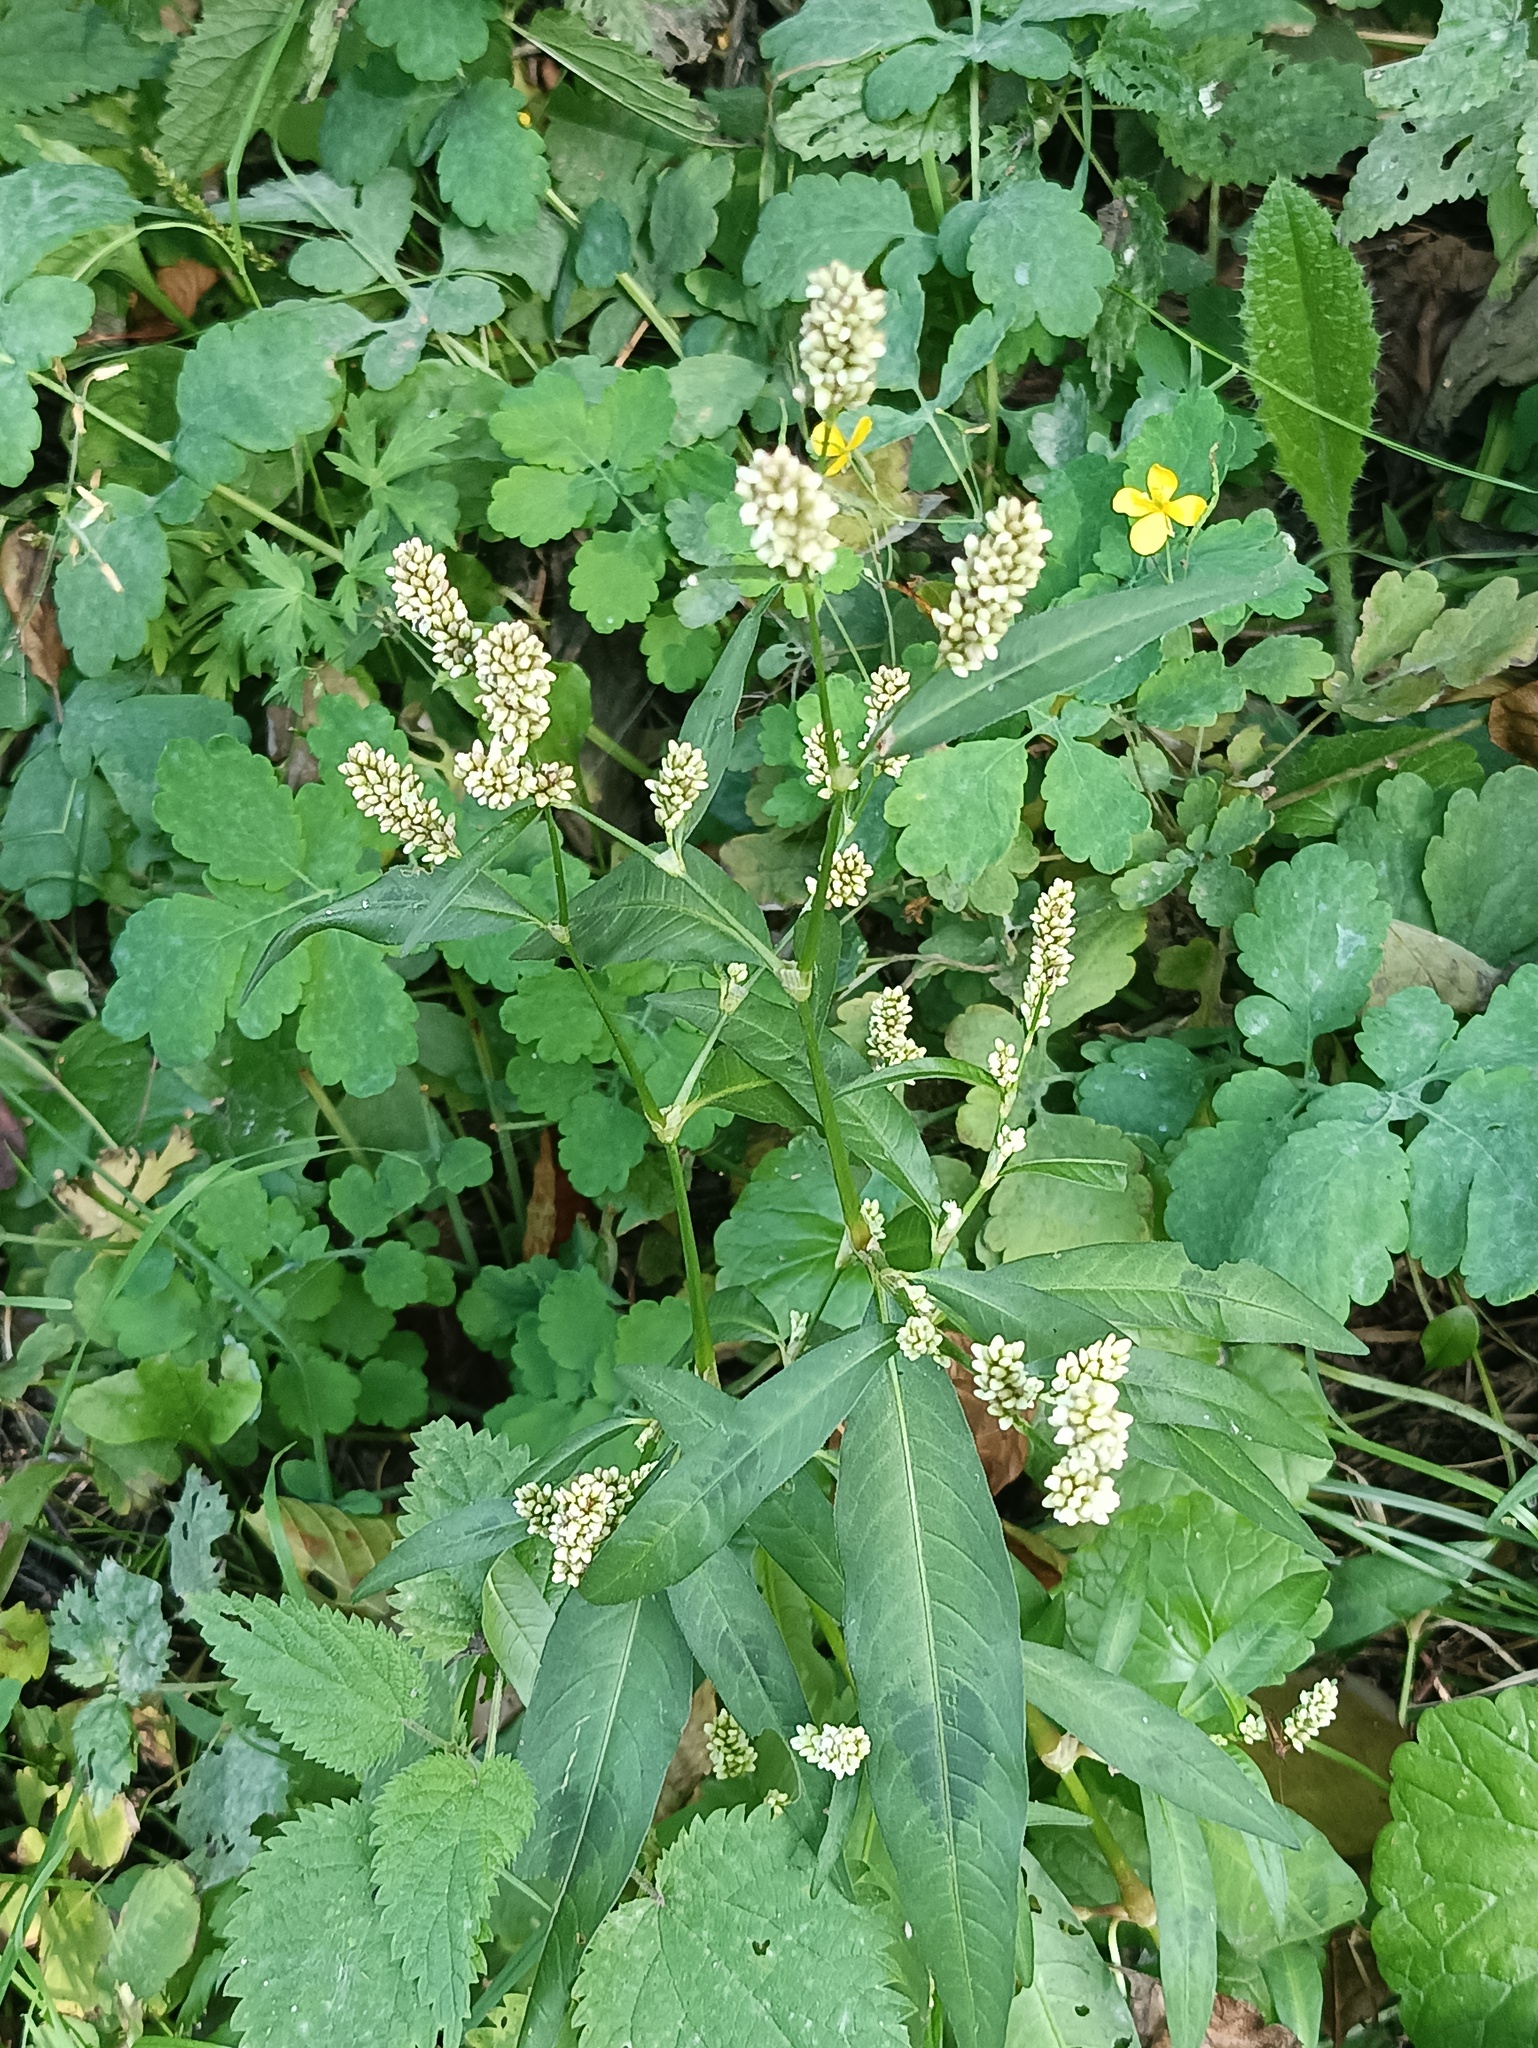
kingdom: Plantae
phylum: Tracheophyta
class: Magnoliopsida
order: Caryophyllales
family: Polygonaceae
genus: Persicaria
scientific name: Persicaria lapathifolia
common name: Curlytop knotweed
